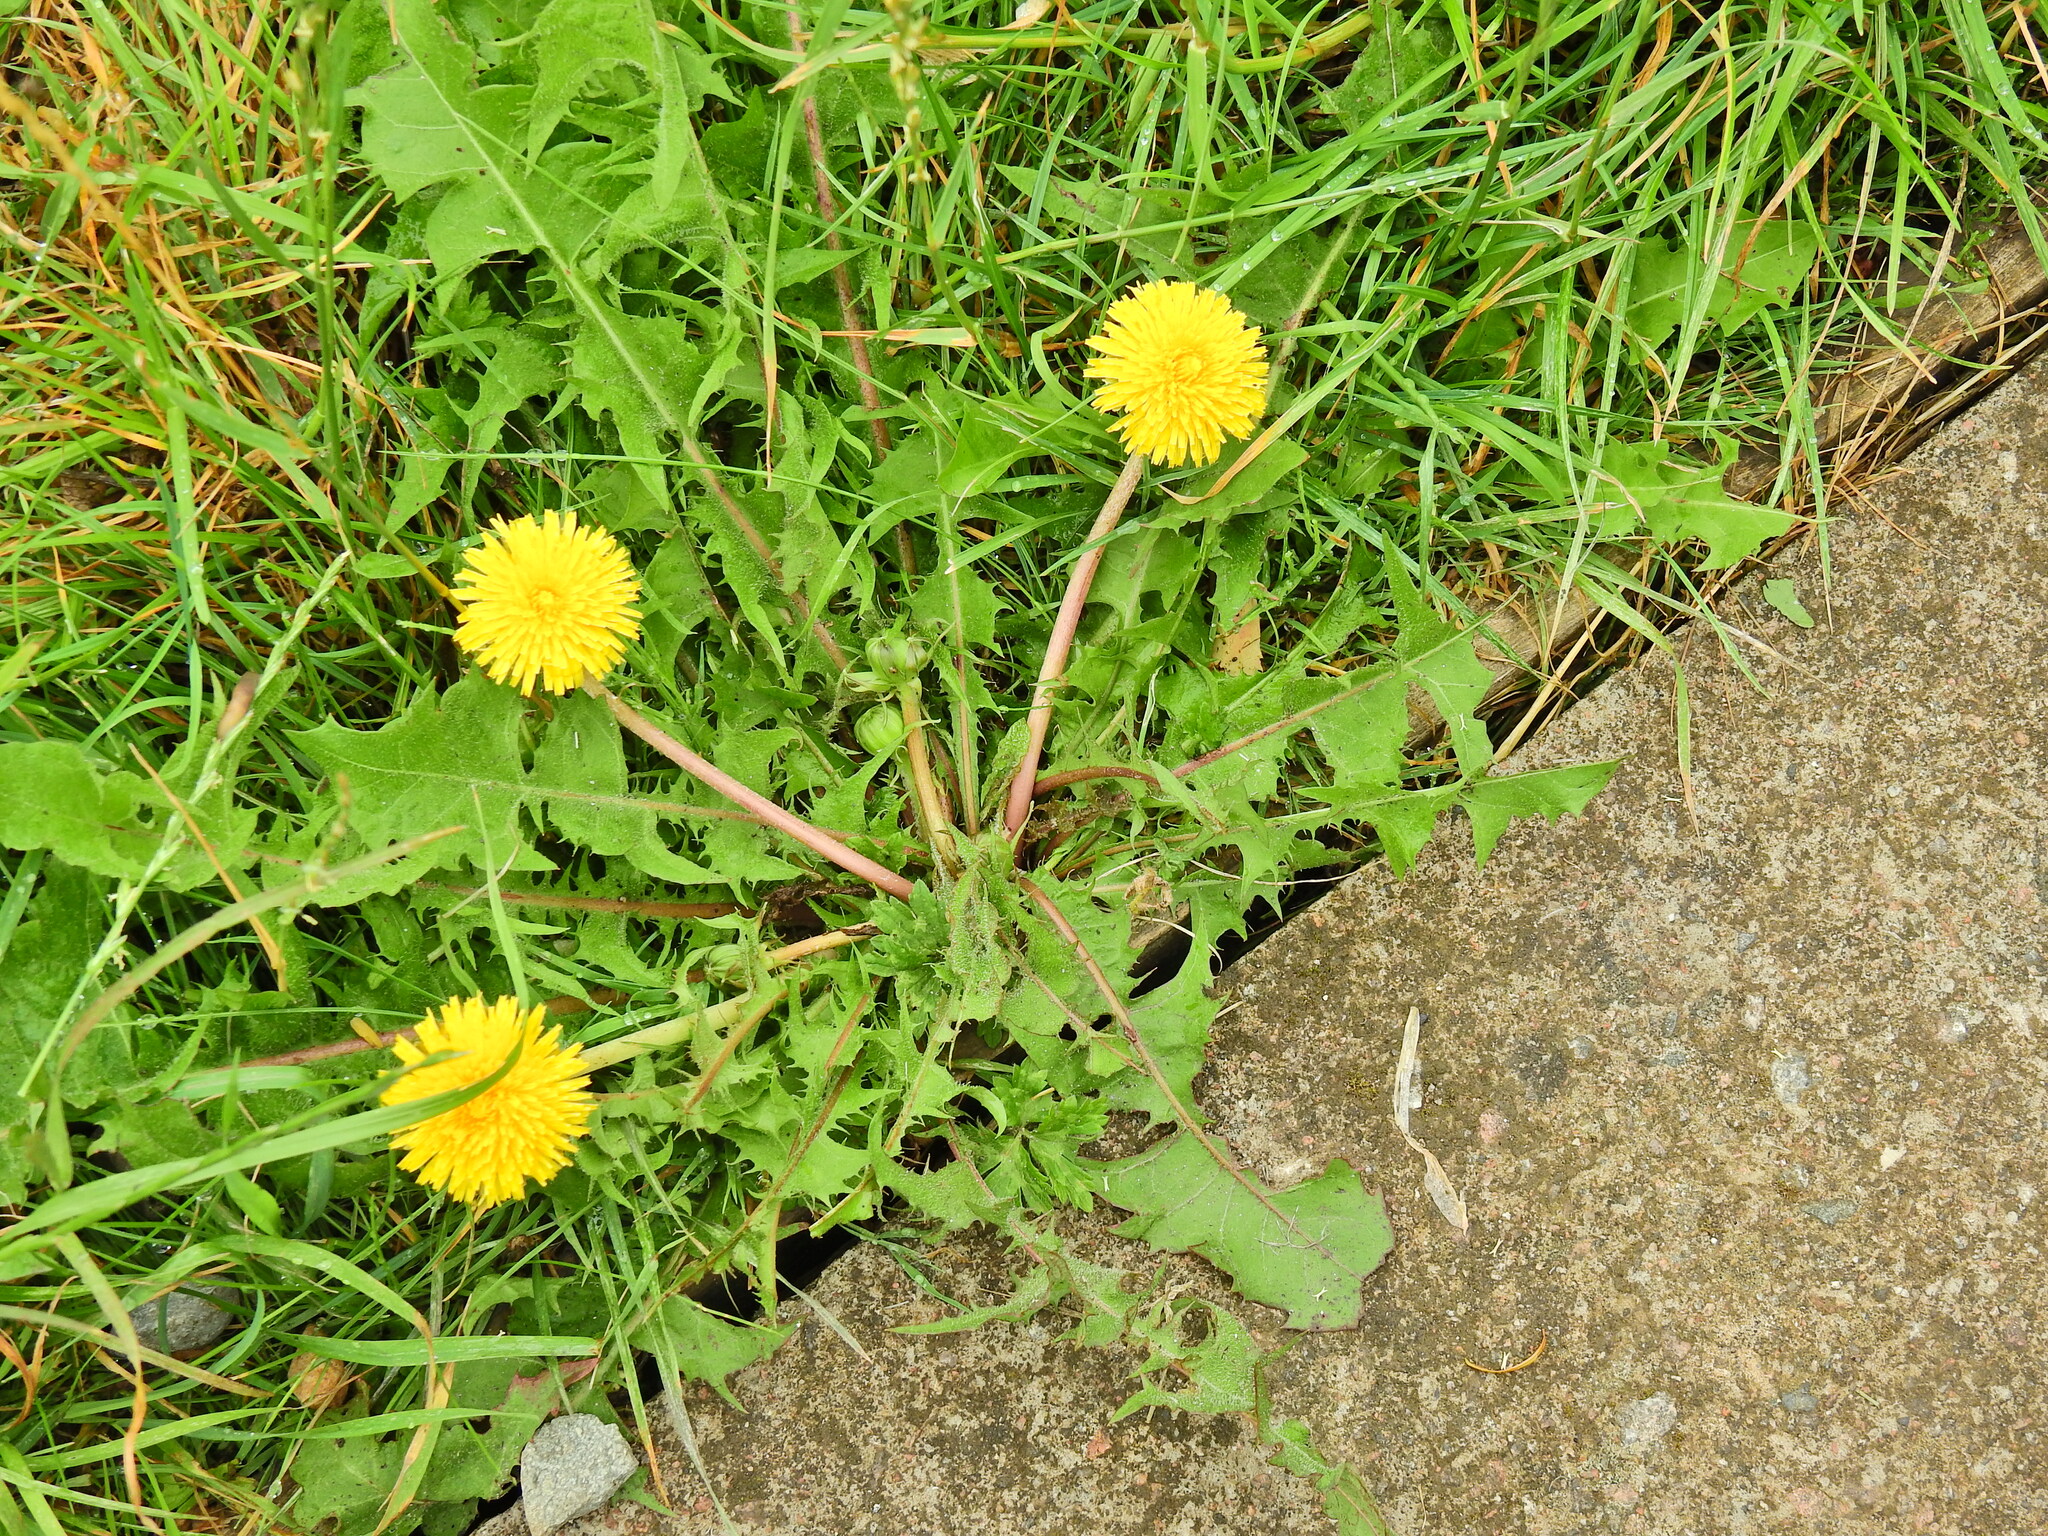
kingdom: Plantae
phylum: Tracheophyta
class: Magnoliopsida
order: Asterales
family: Asteraceae
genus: Taraxacum
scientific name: Taraxacum officinale
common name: Common dandelion
